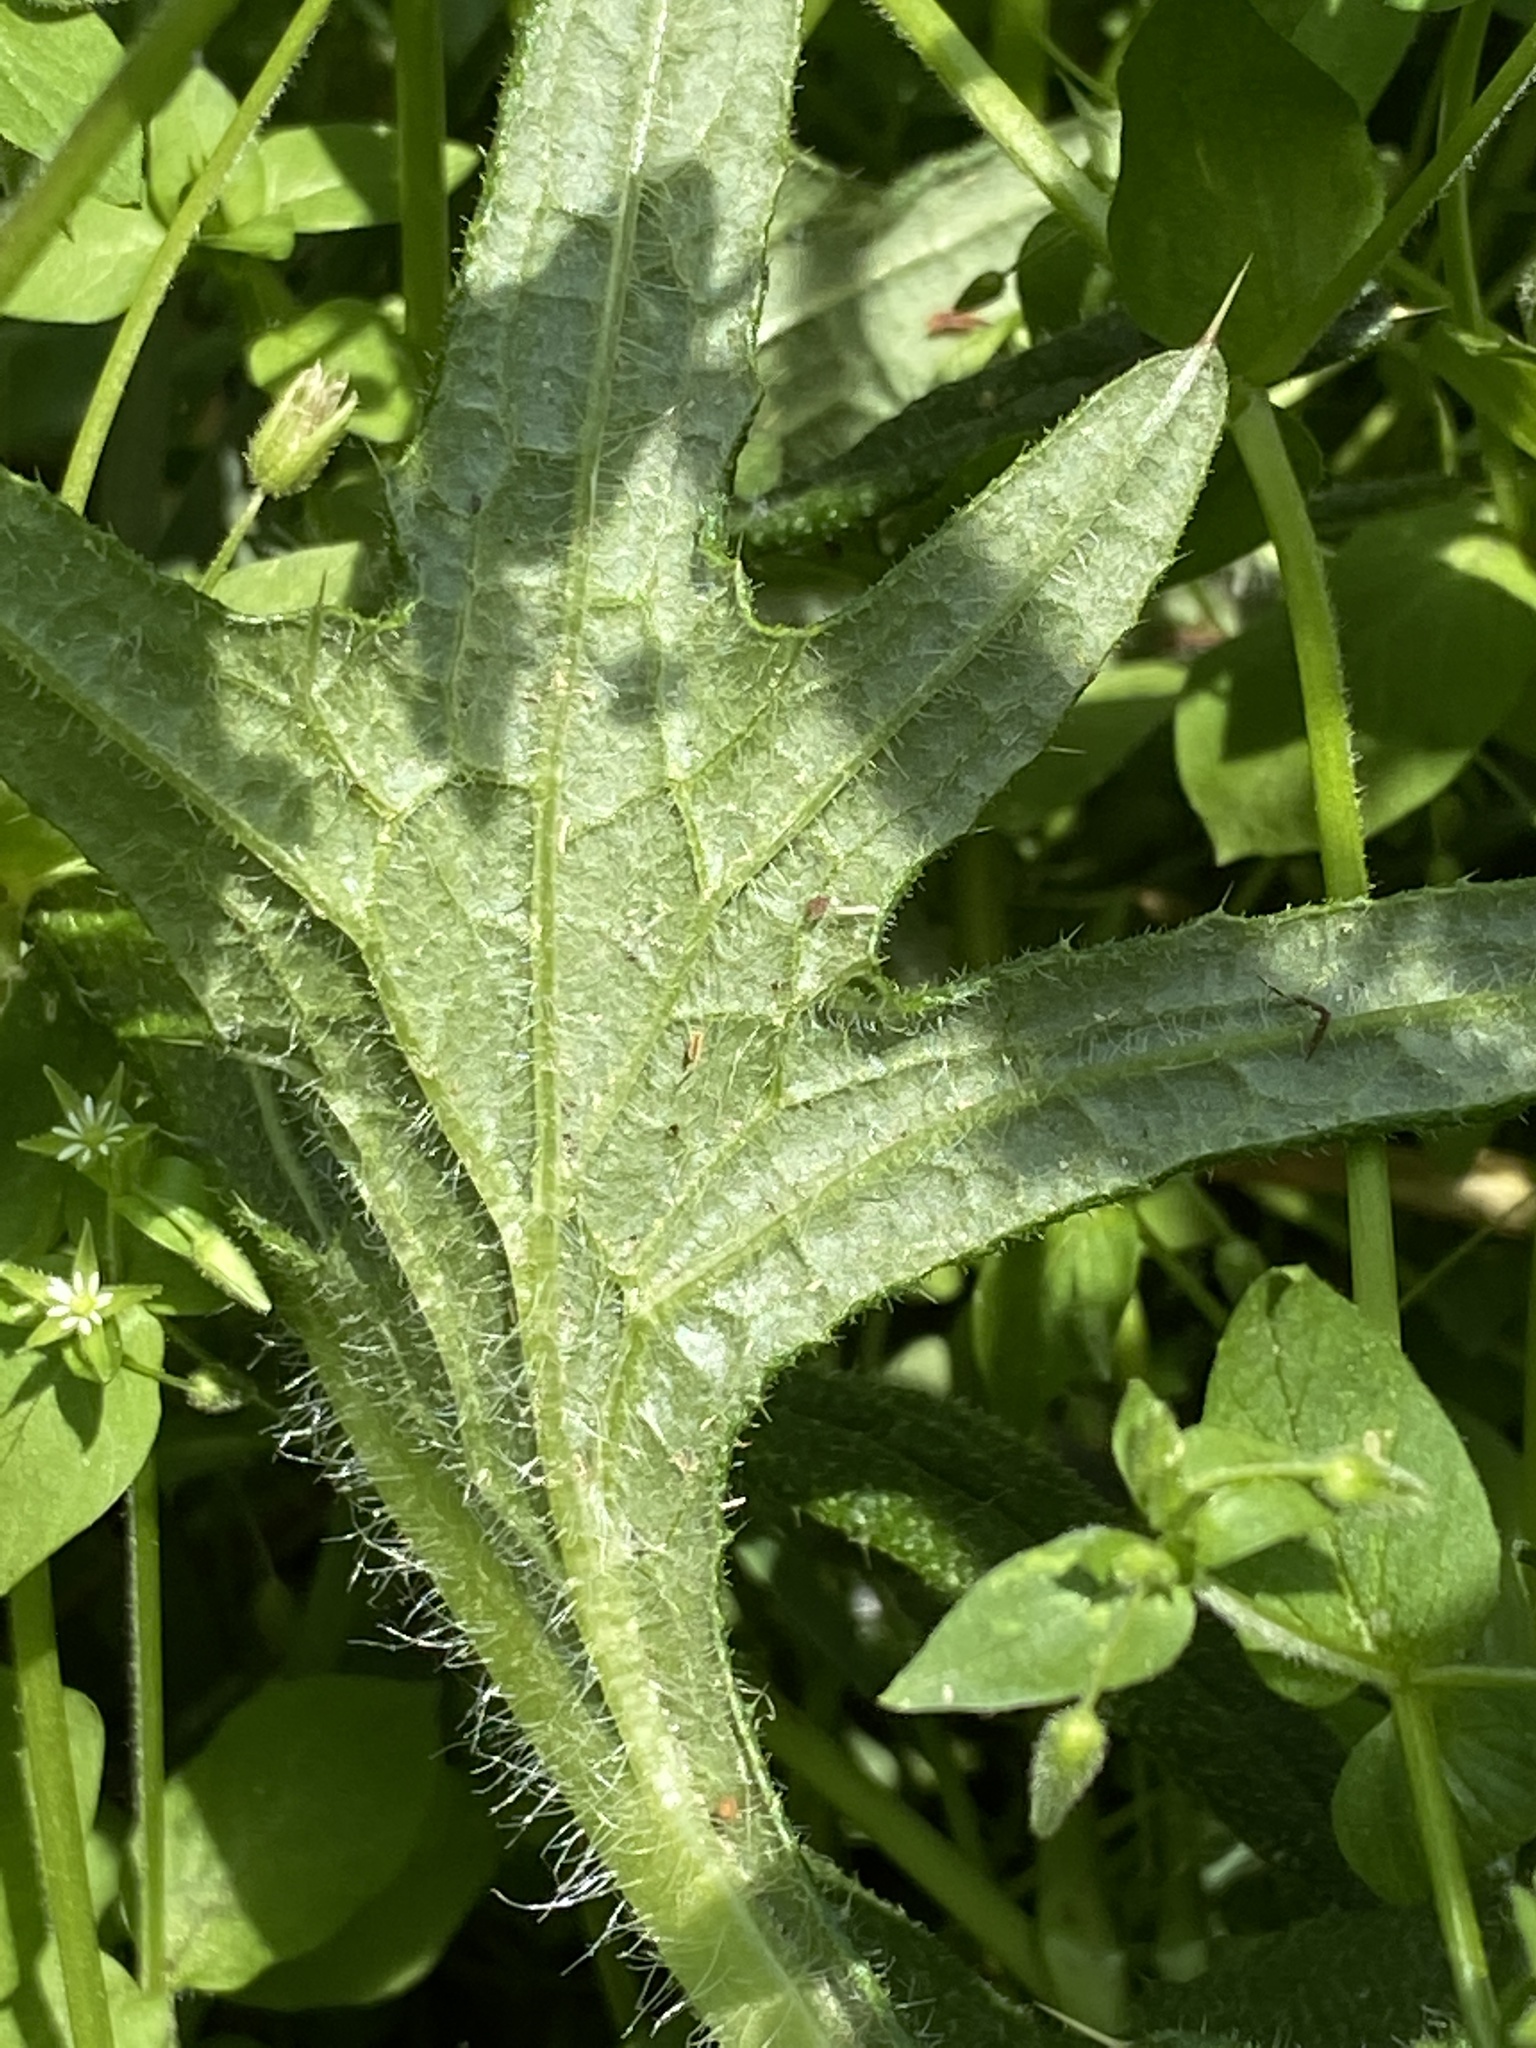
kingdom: Plantae
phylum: Tracheophyta
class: Magnoliopsida
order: Asterales
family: Asteraceae
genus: Cirsium
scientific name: Cirsium vulgare
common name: Bull thistle
